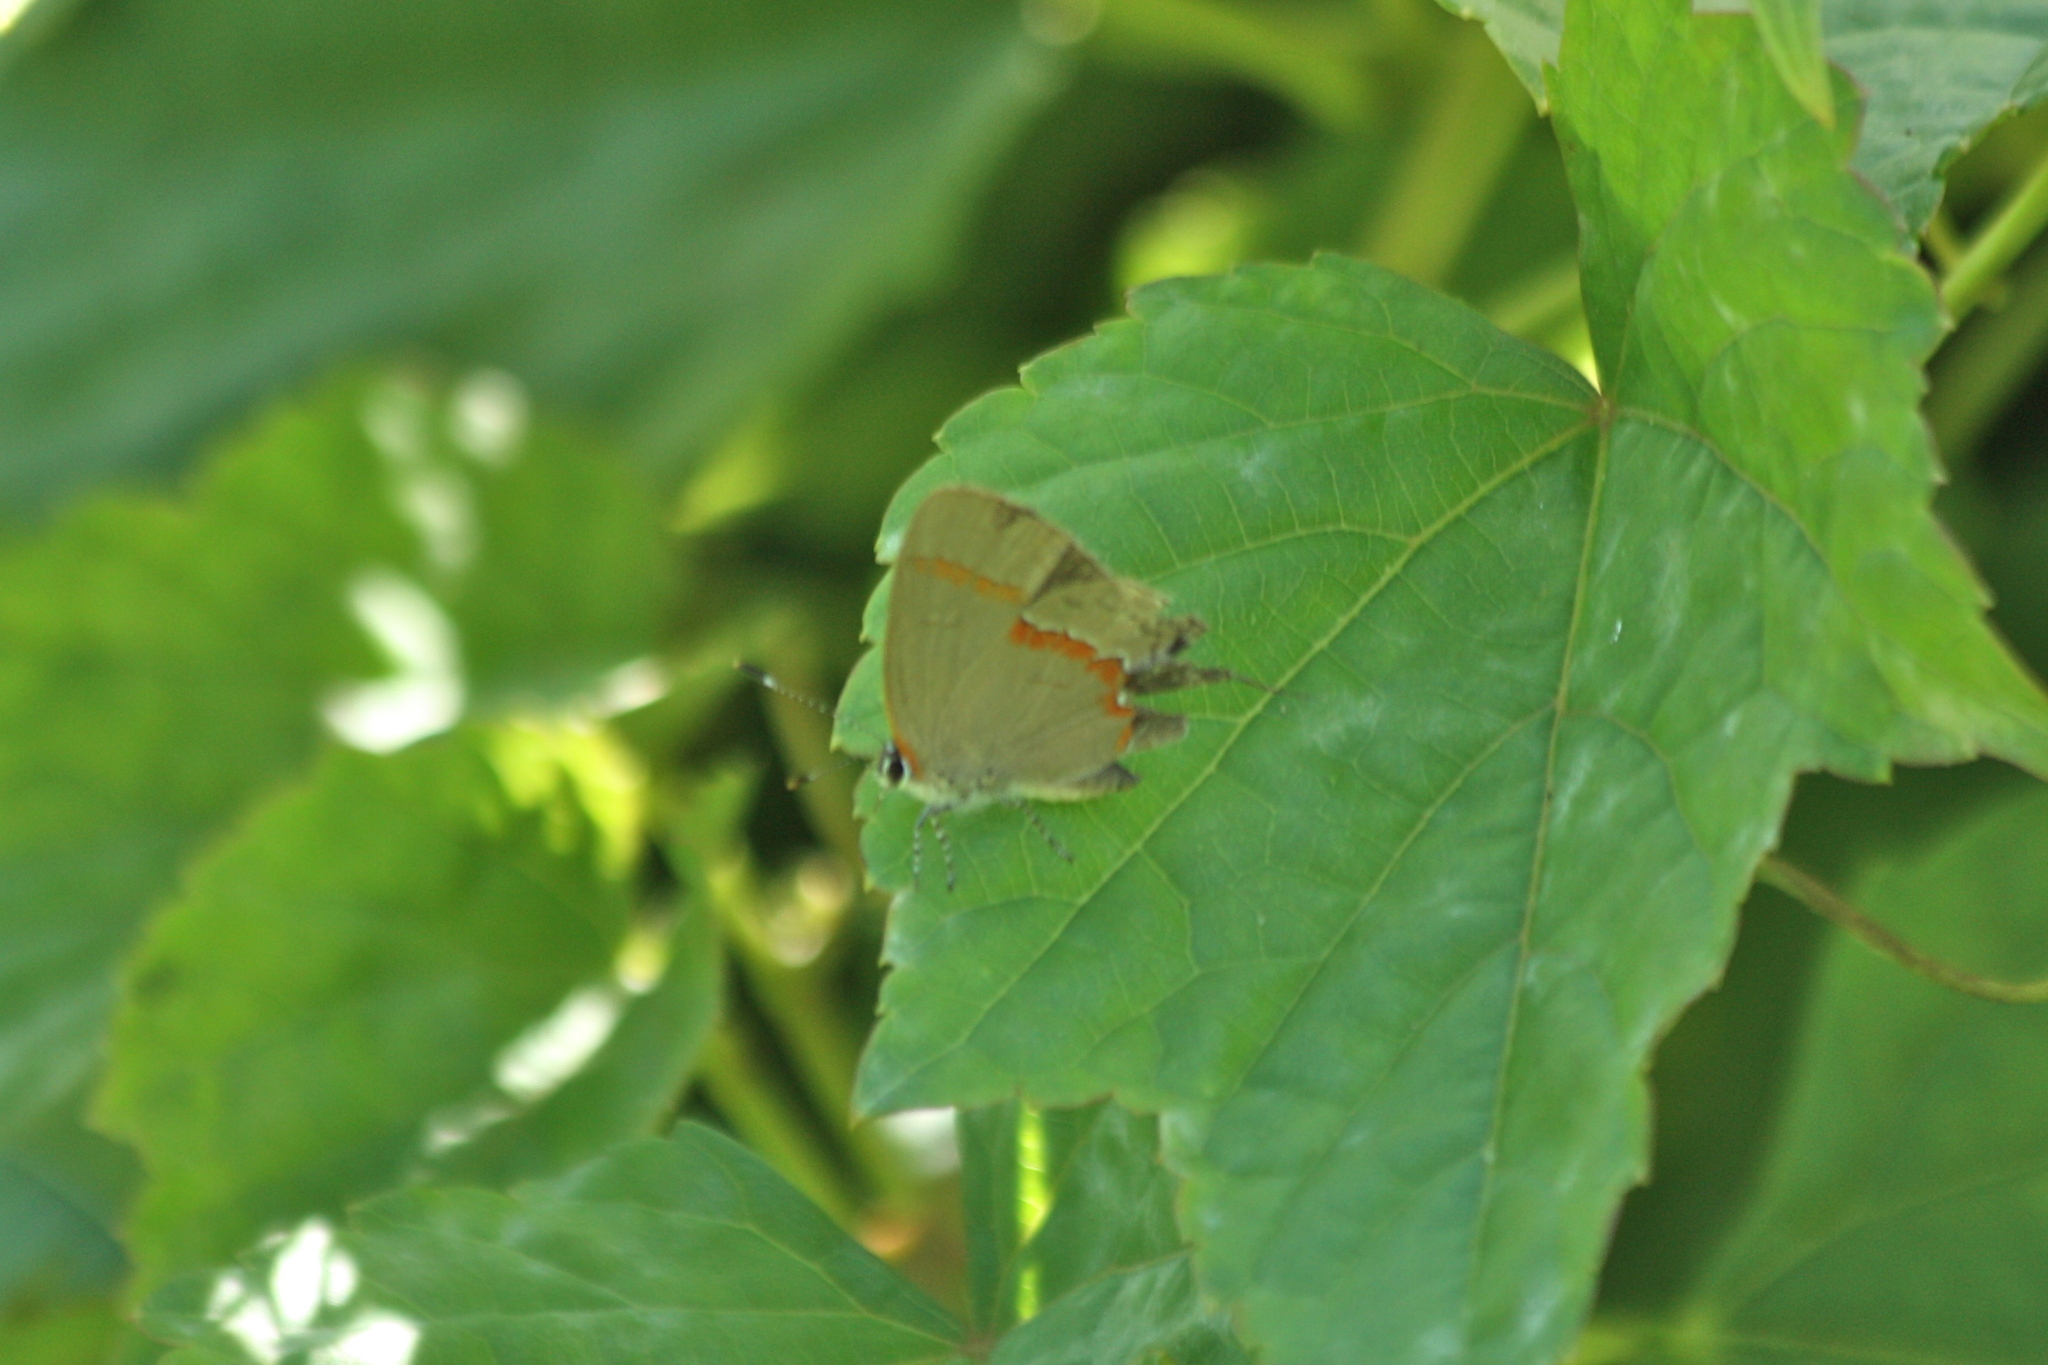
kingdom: Animalia
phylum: Arthropoda
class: Insecta
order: Lepidoptera
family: Lycaenidae
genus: Calycopis
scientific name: Calycopis cecrops
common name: Red-banded hairstreak
